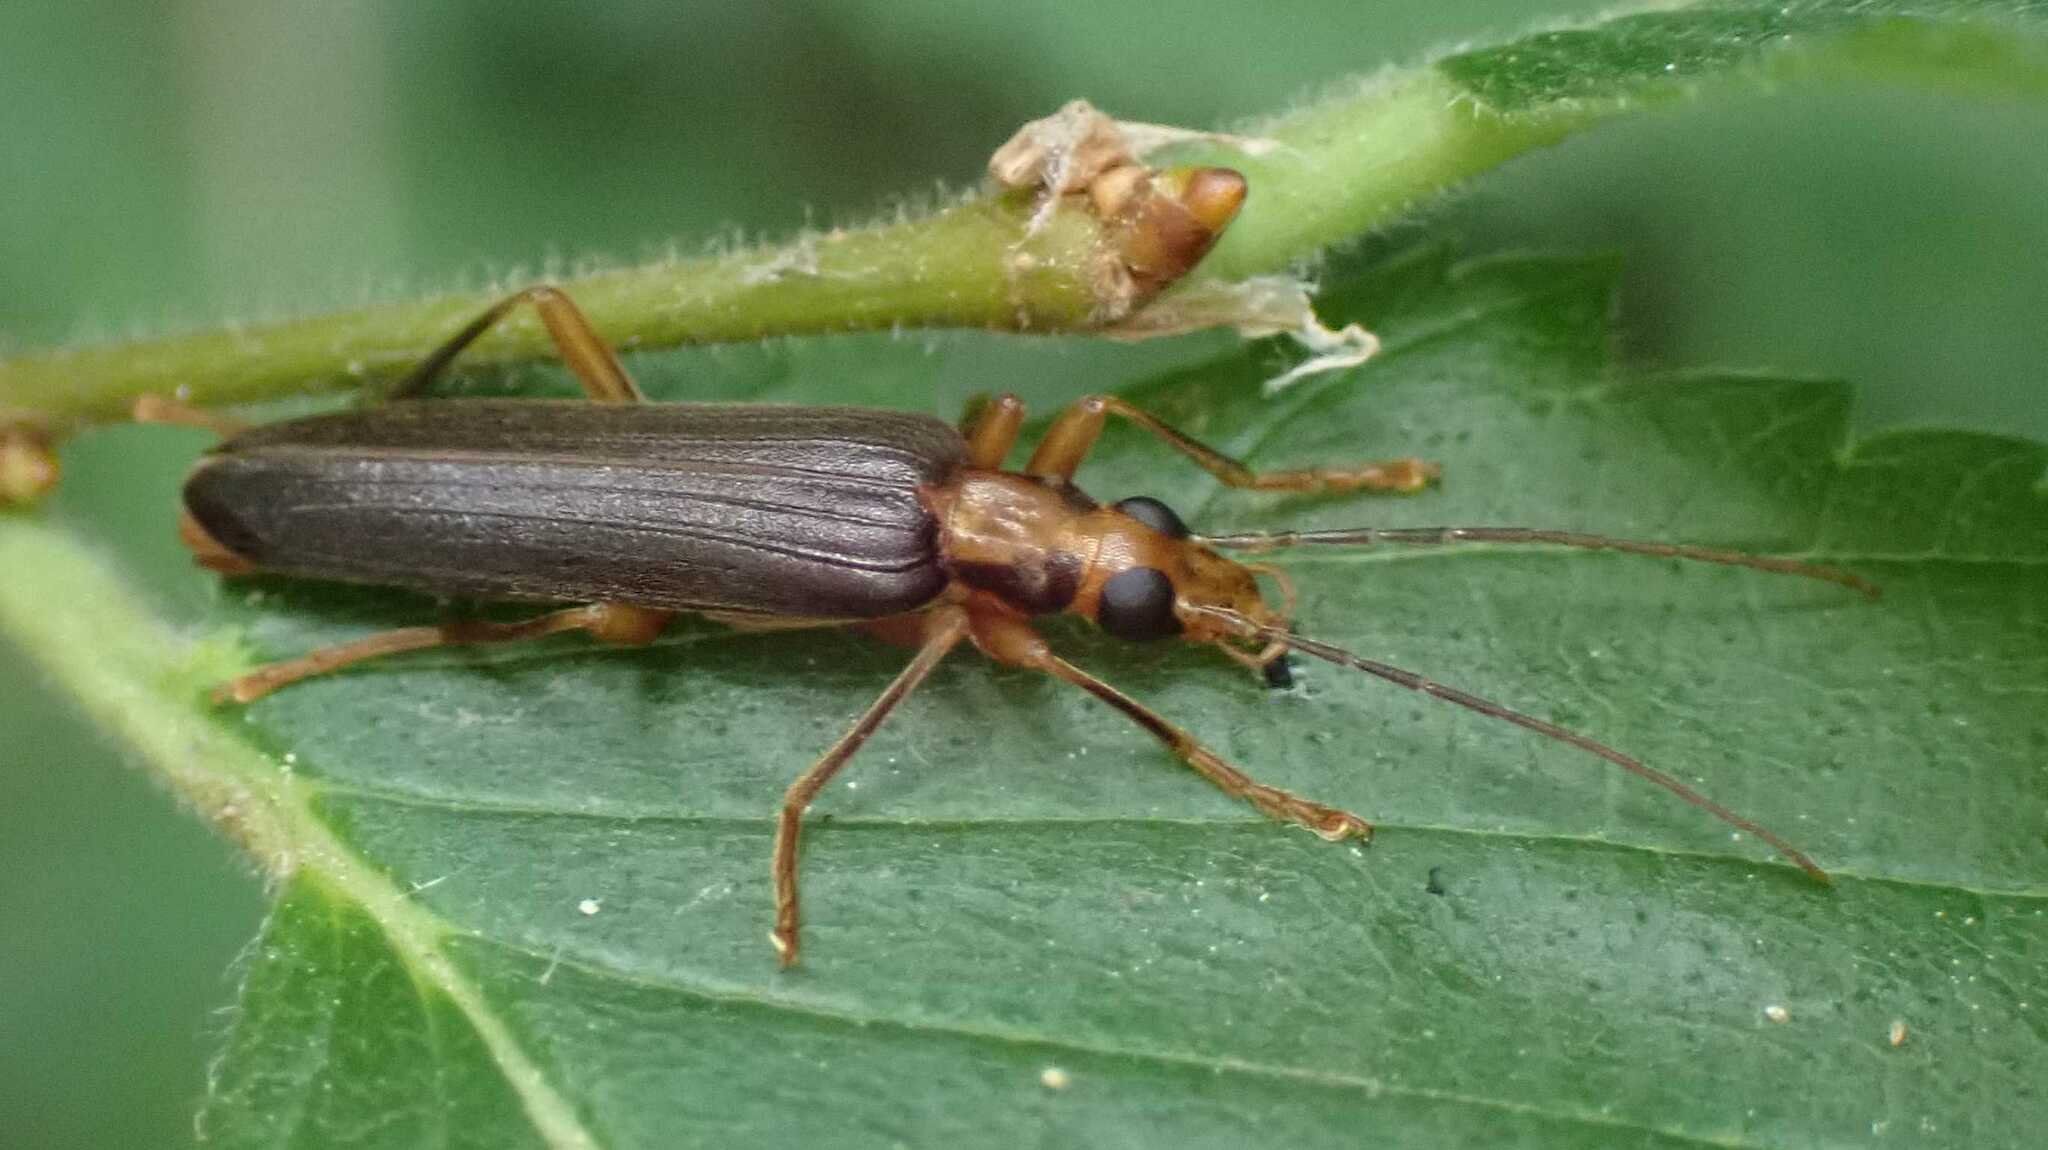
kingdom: Animalia
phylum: Arthropoda
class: Insecta
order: Coleoptera
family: Oedemeridae
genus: Nacerdes
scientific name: Nacerdes carniolica
